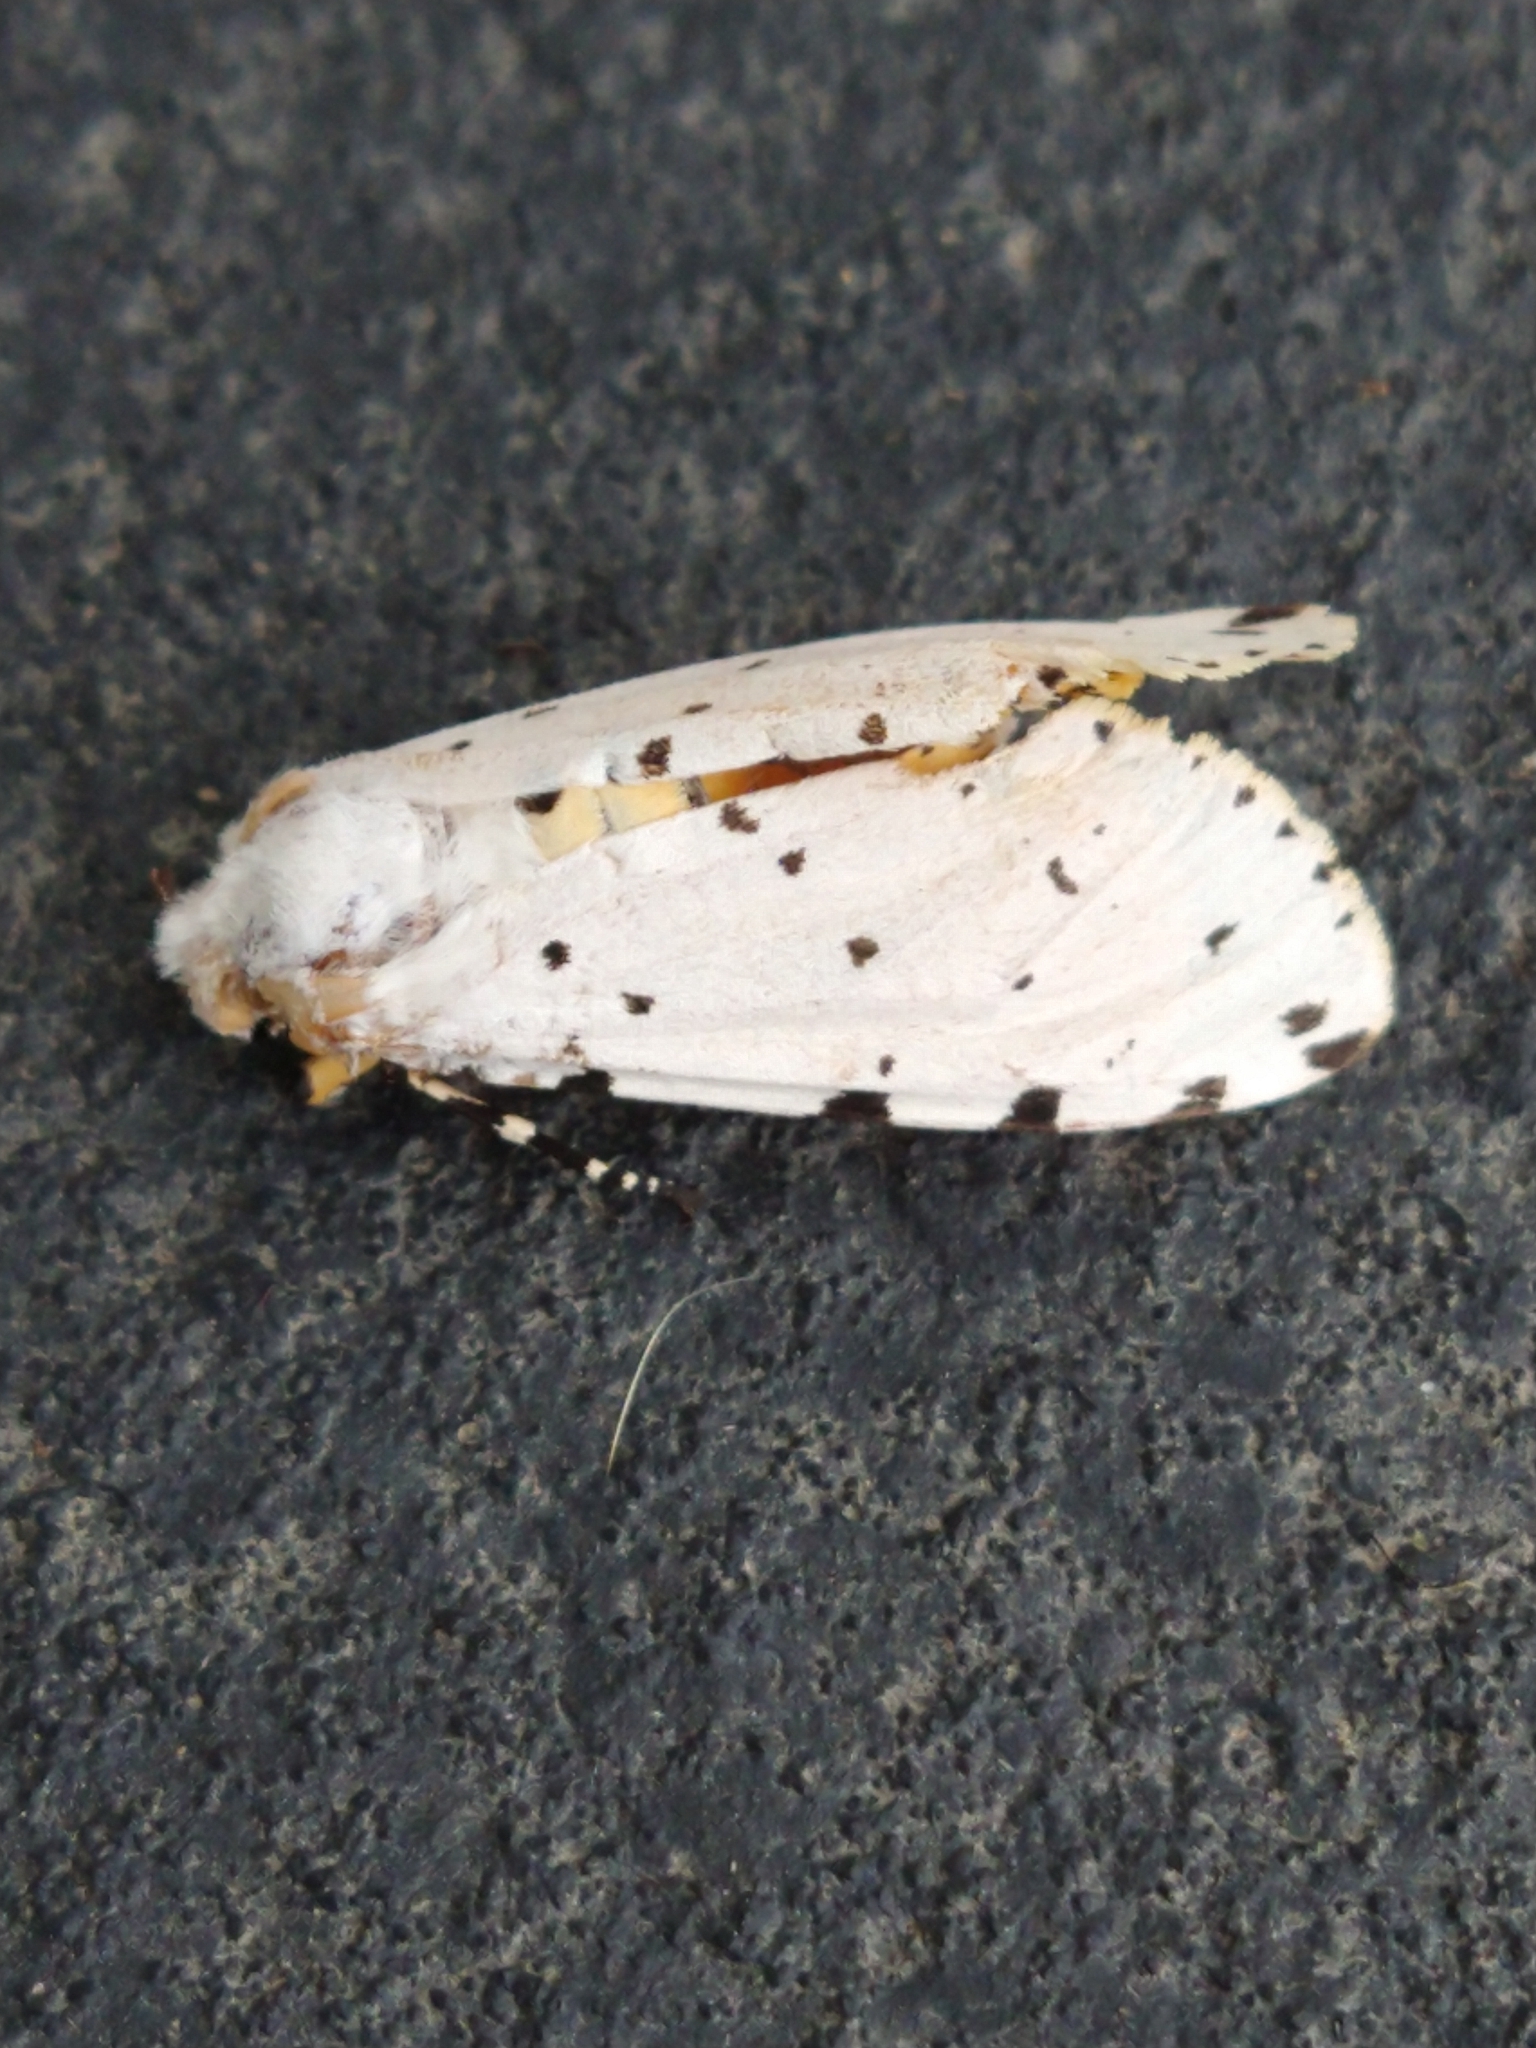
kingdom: Animalia
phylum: Arthropoda
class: Insecta
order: Lepidoptera
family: Erebidae
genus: Estigmene
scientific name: Estigmene acrea
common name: Salt marsh moth
